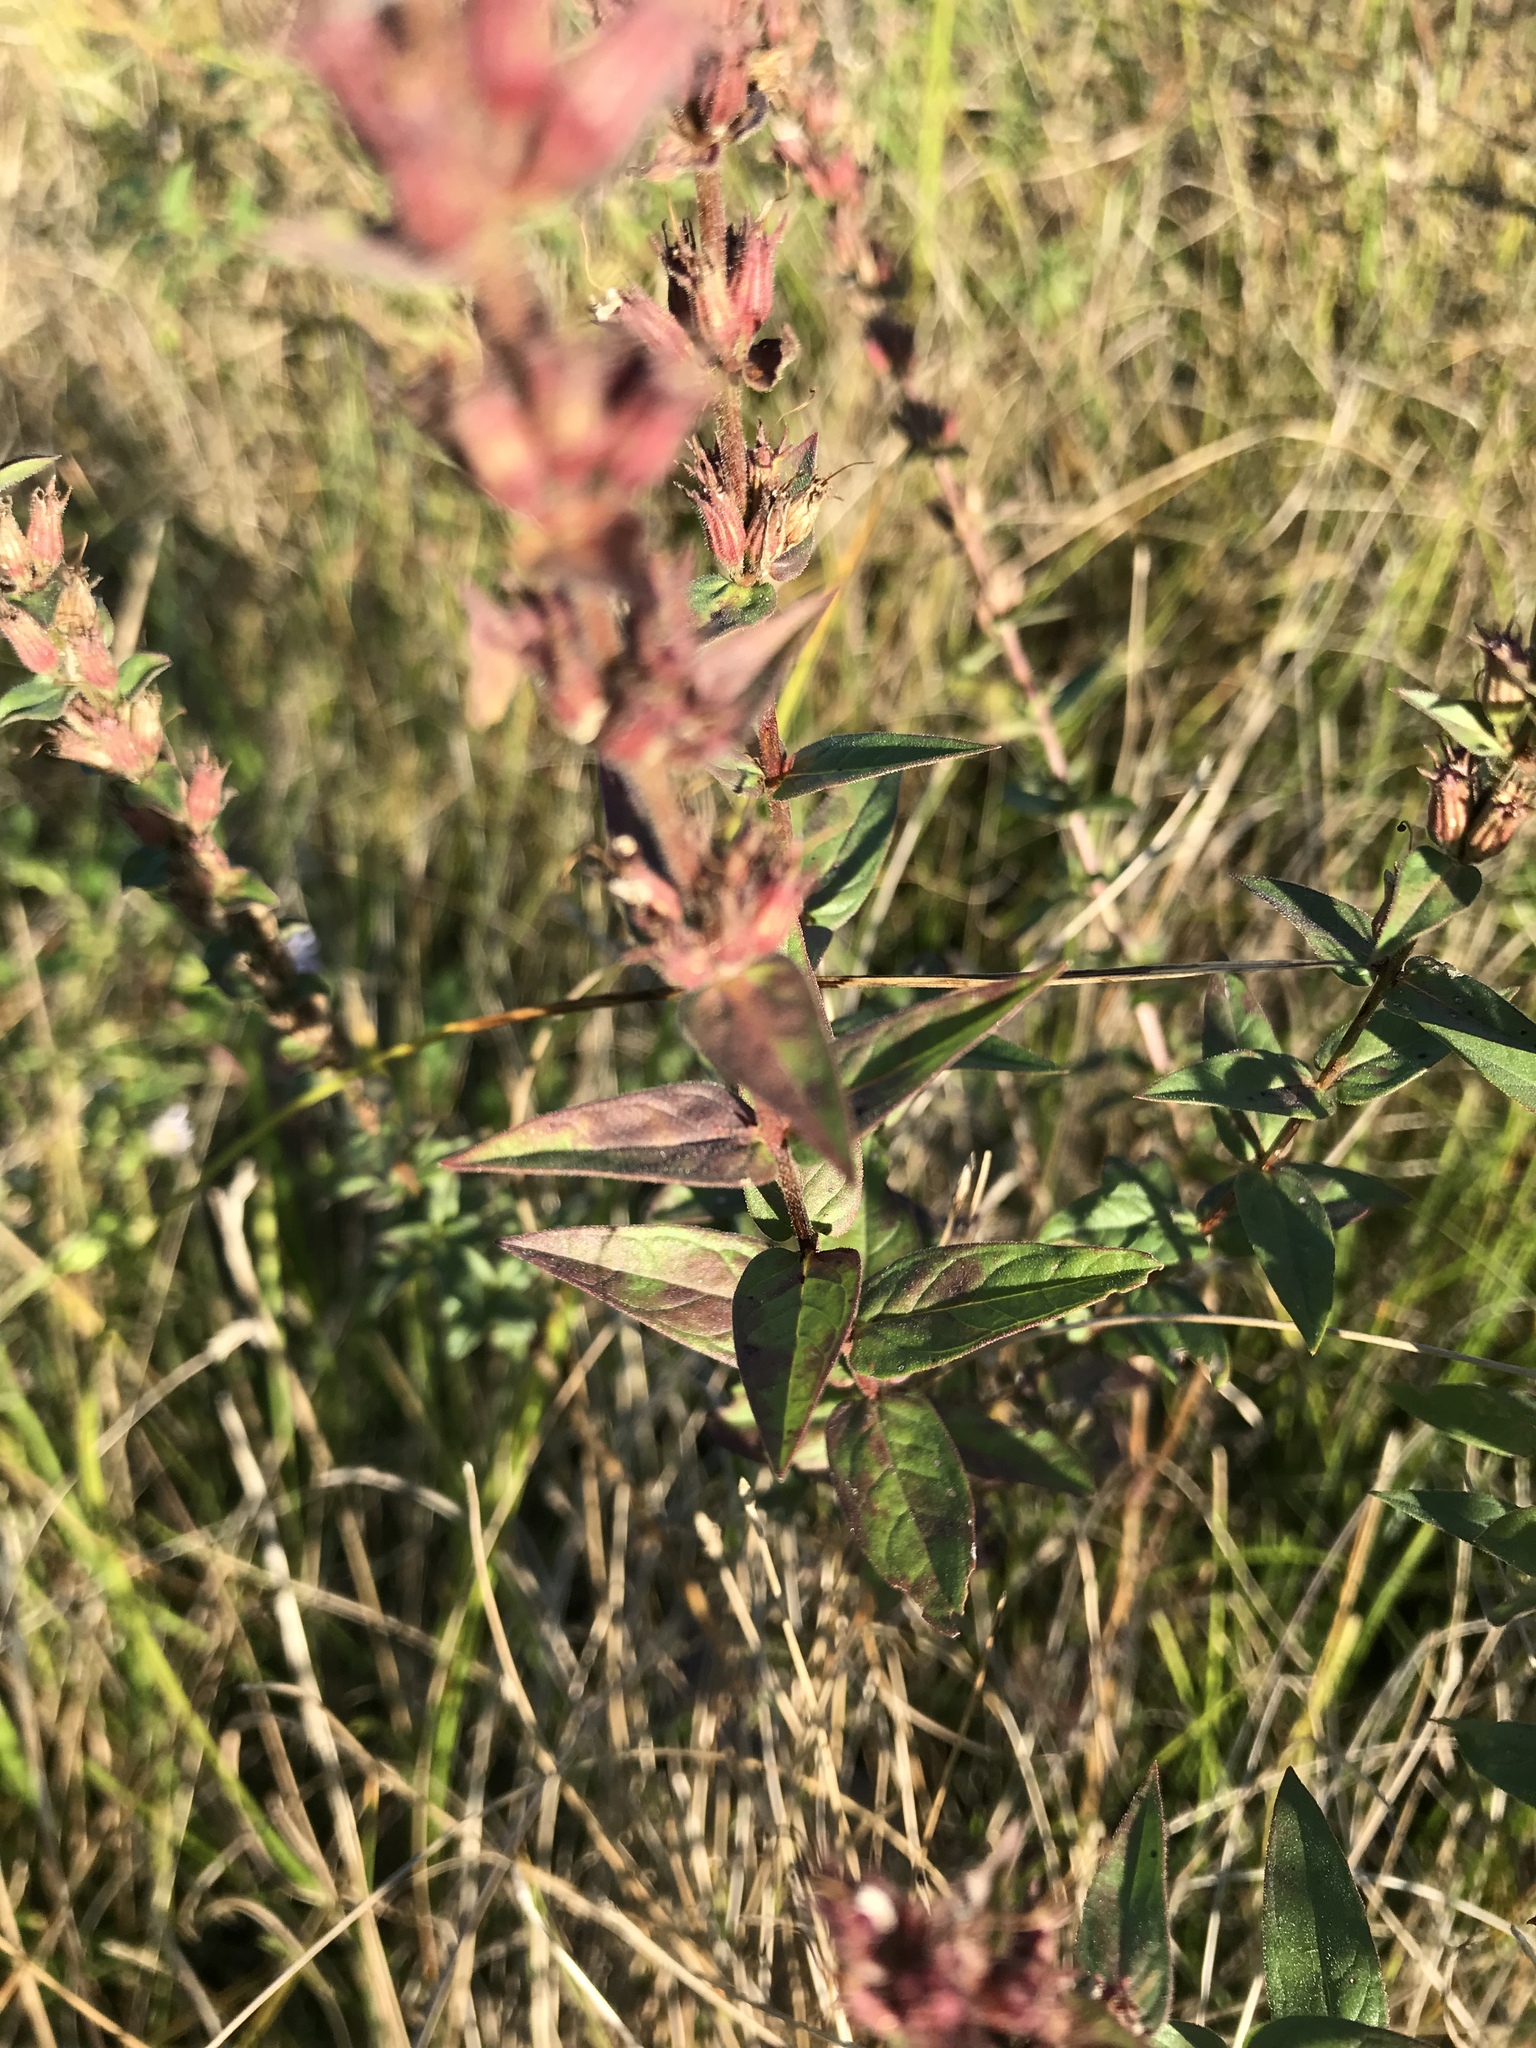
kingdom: Plantae
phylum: Tracheophyta
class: Magnoliopsida
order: Myrtales
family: Lythraceae
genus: Lythrum
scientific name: Lythrum salicaria
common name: Purple loosestrife
